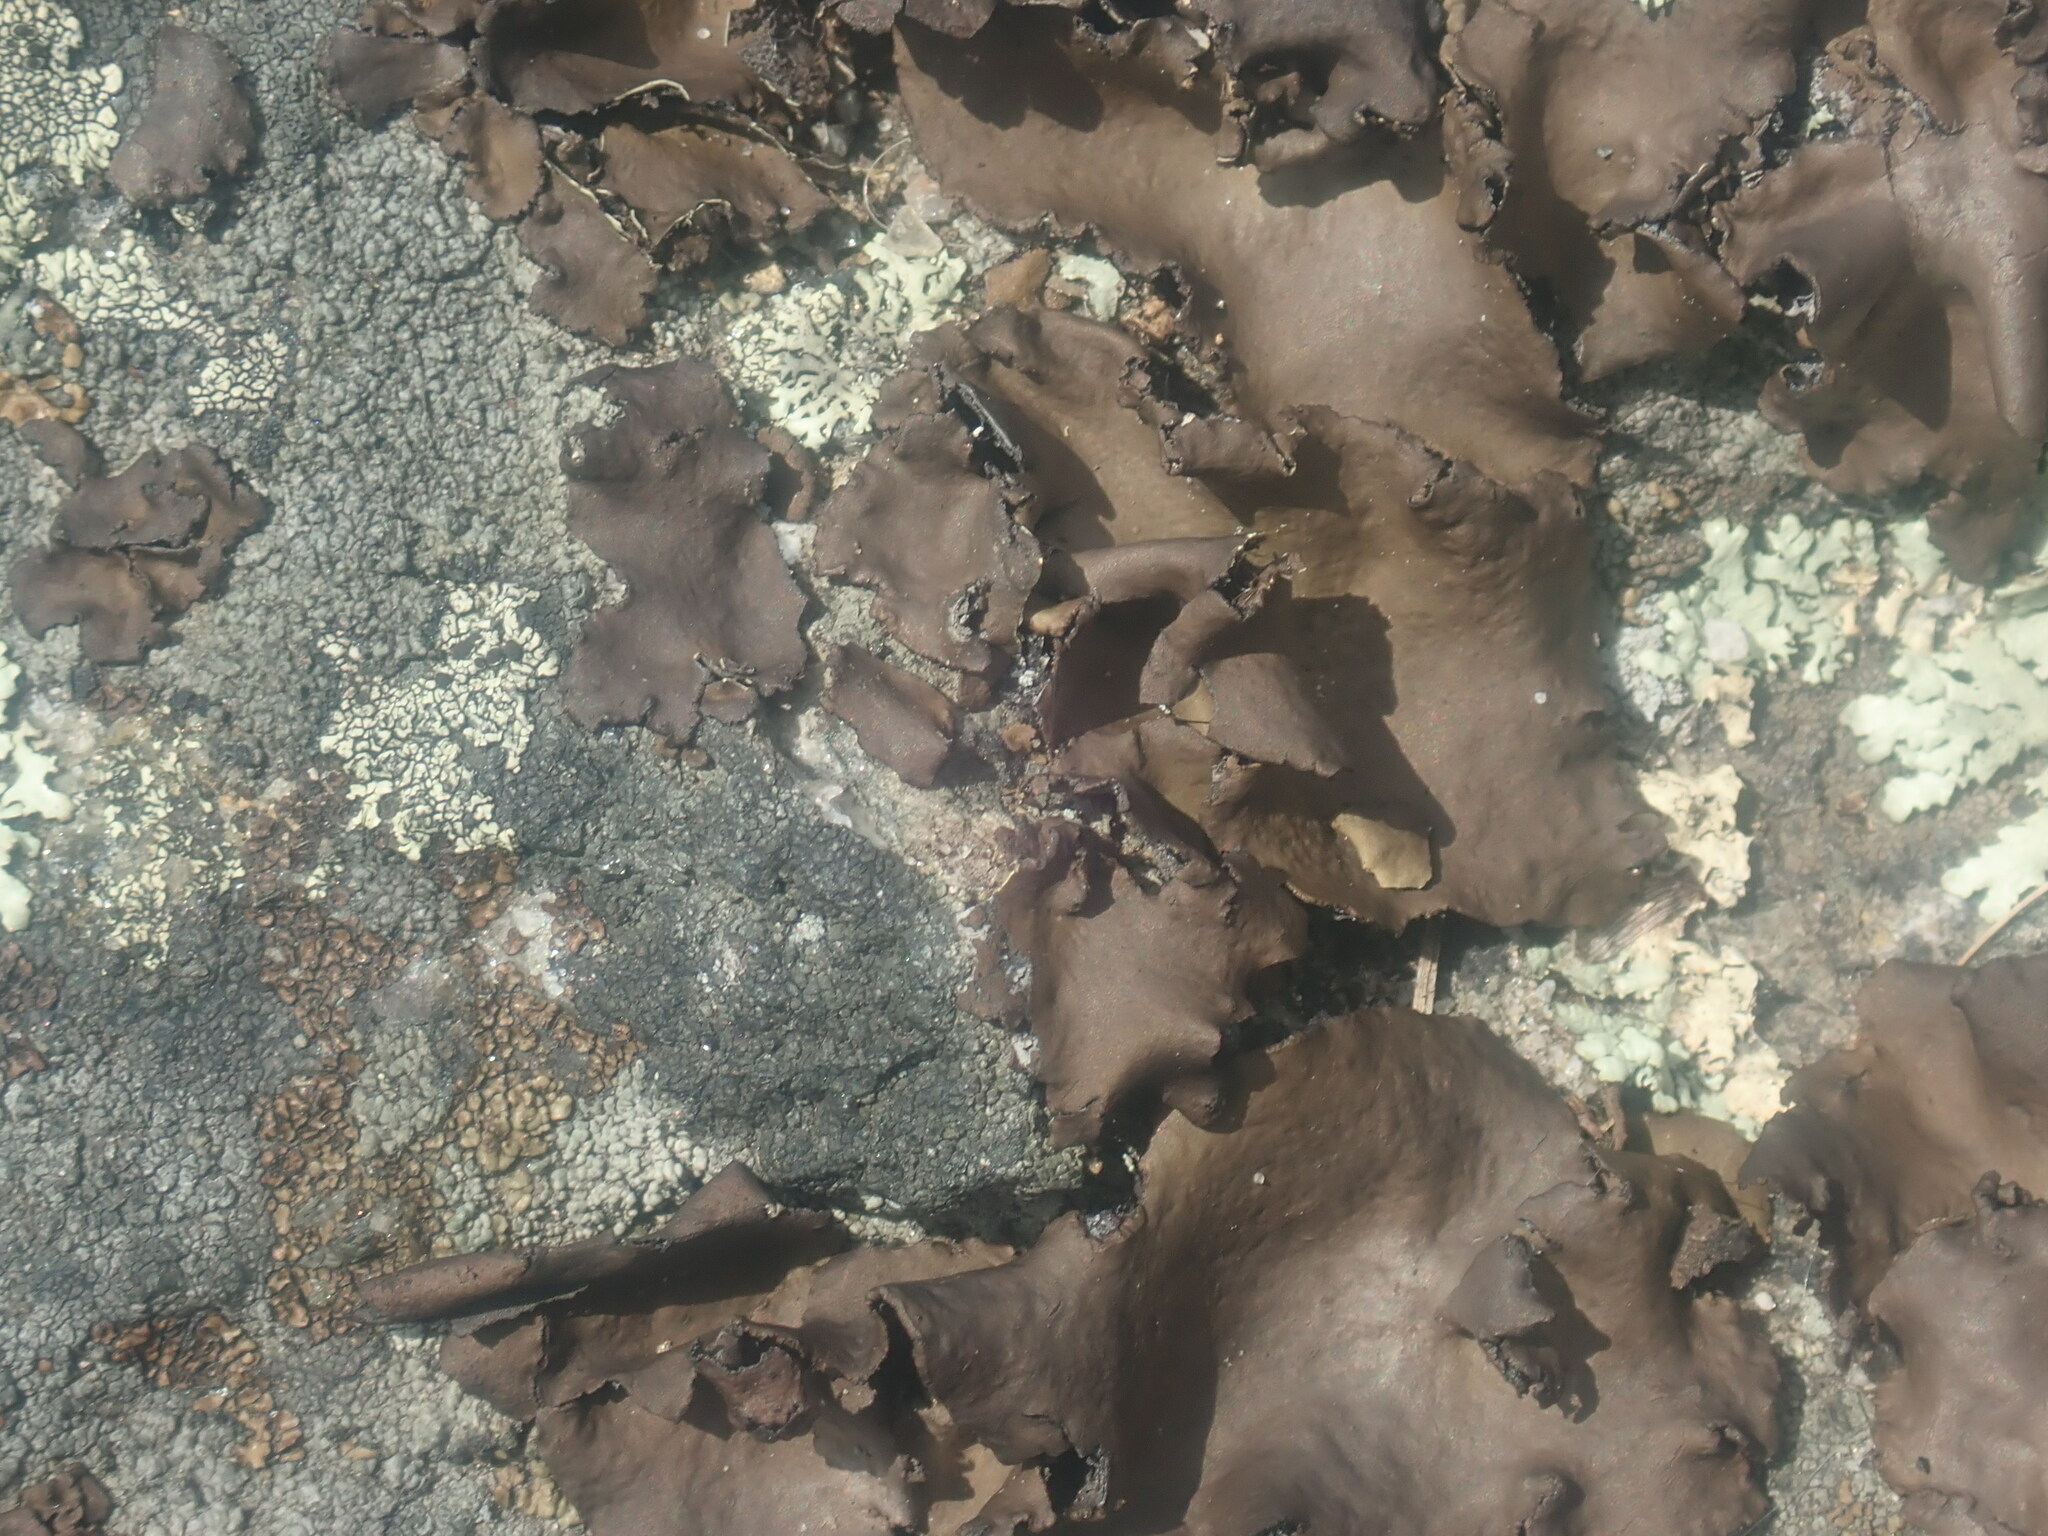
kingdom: Fungi
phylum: Ascomycota
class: Lecanoromycetes
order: Umbilicariales
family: Umbilicariaceae
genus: Umbilicaria
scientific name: Umbilicaria muhlenbergii
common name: Lesser rocktripe
